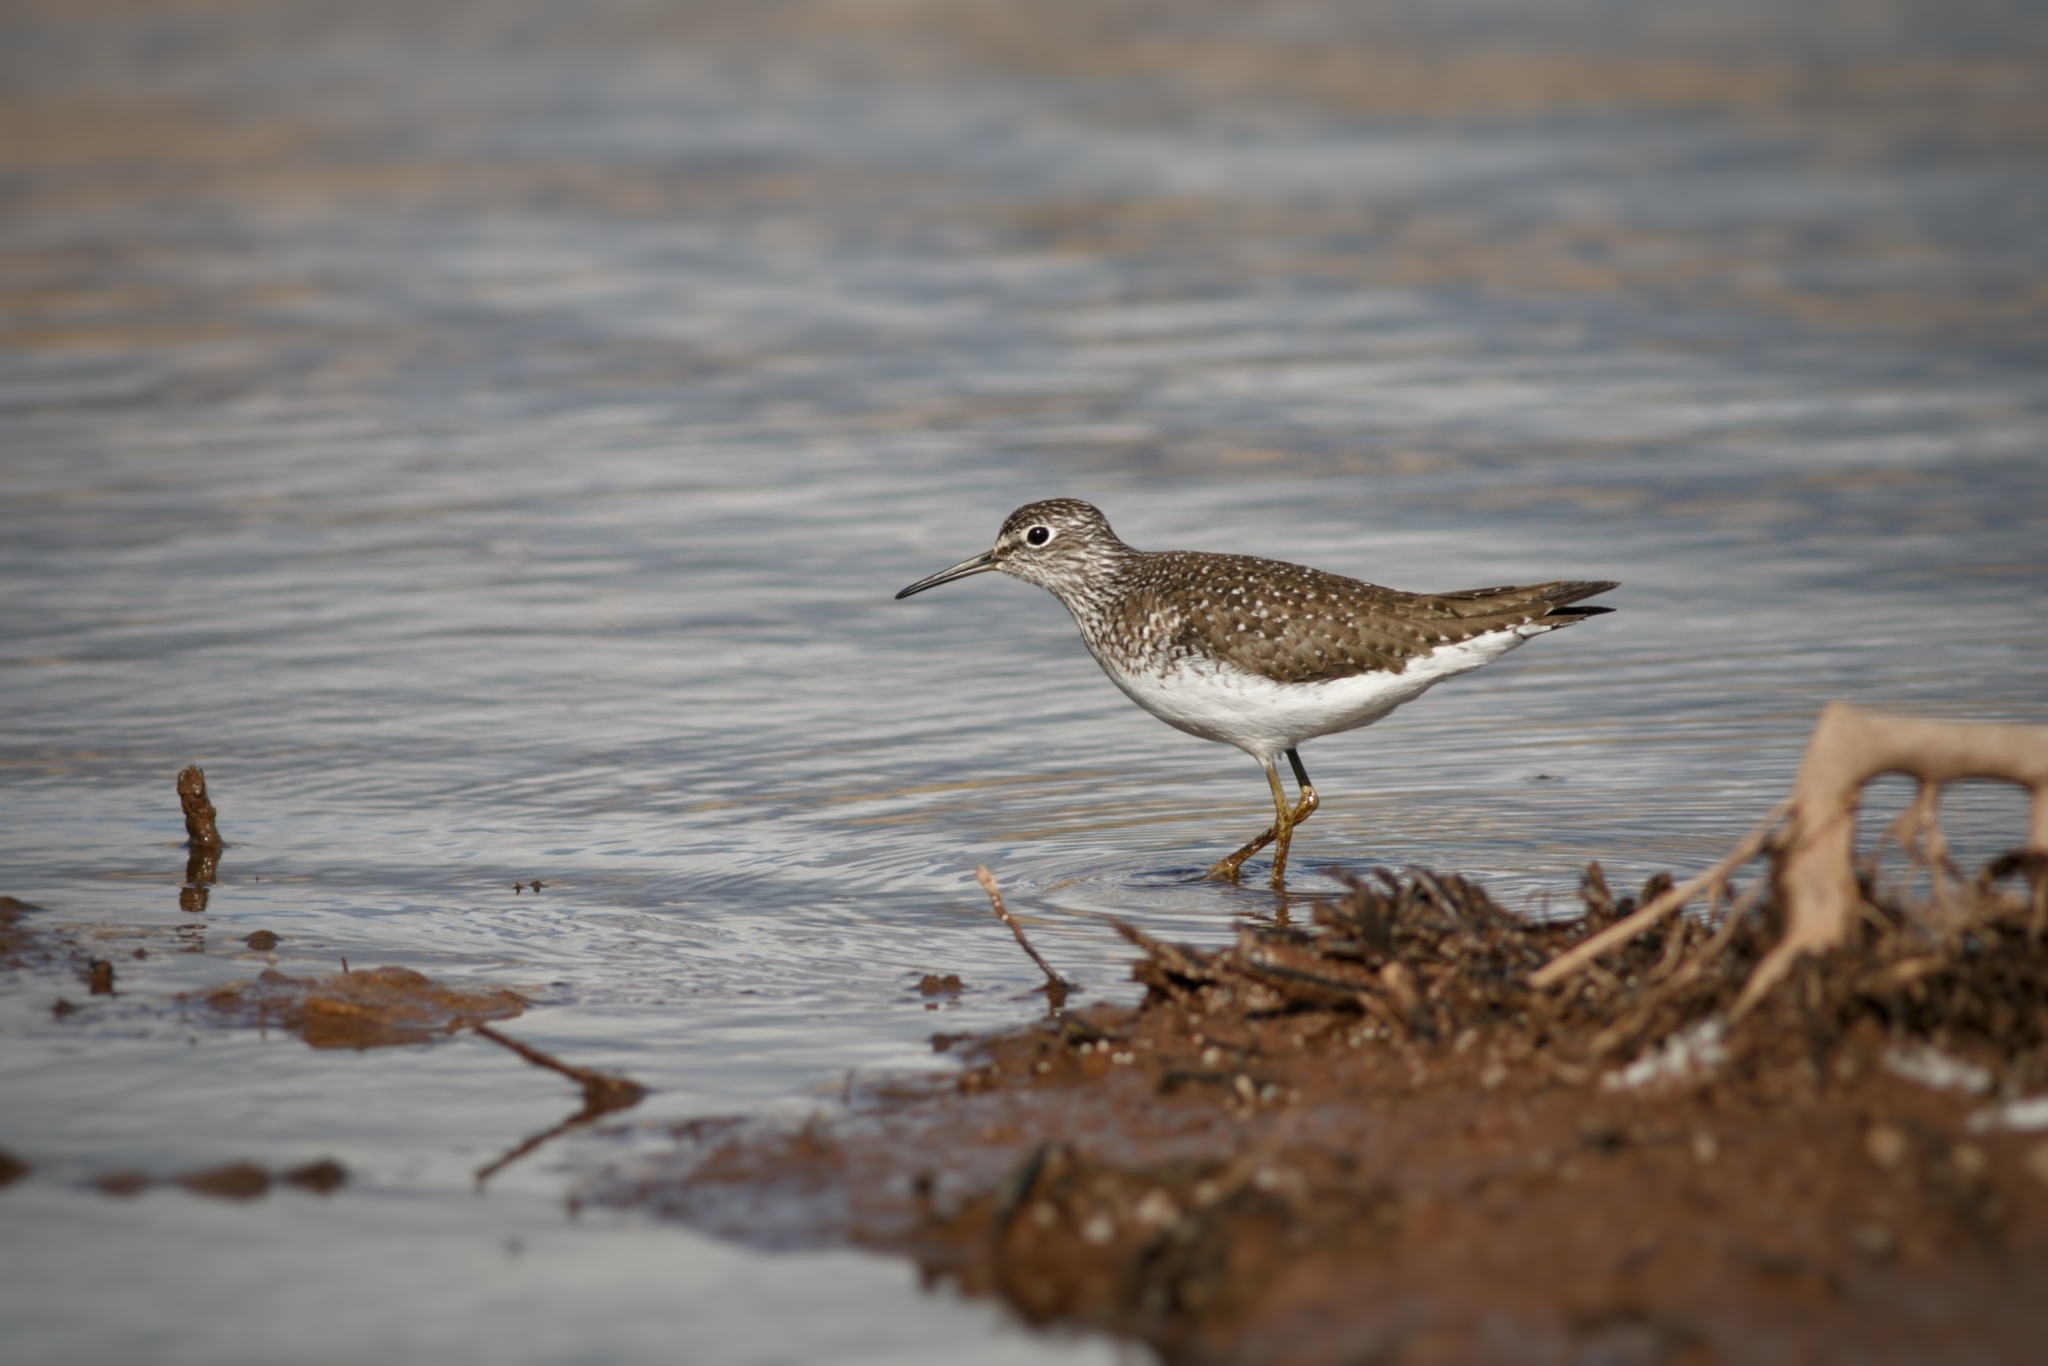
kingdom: Animalia
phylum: Chordata
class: Aves
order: Charadriiformes
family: Scolopacidae
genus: Tringa
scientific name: Tringa solitaria
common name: Solitary sandpiper
